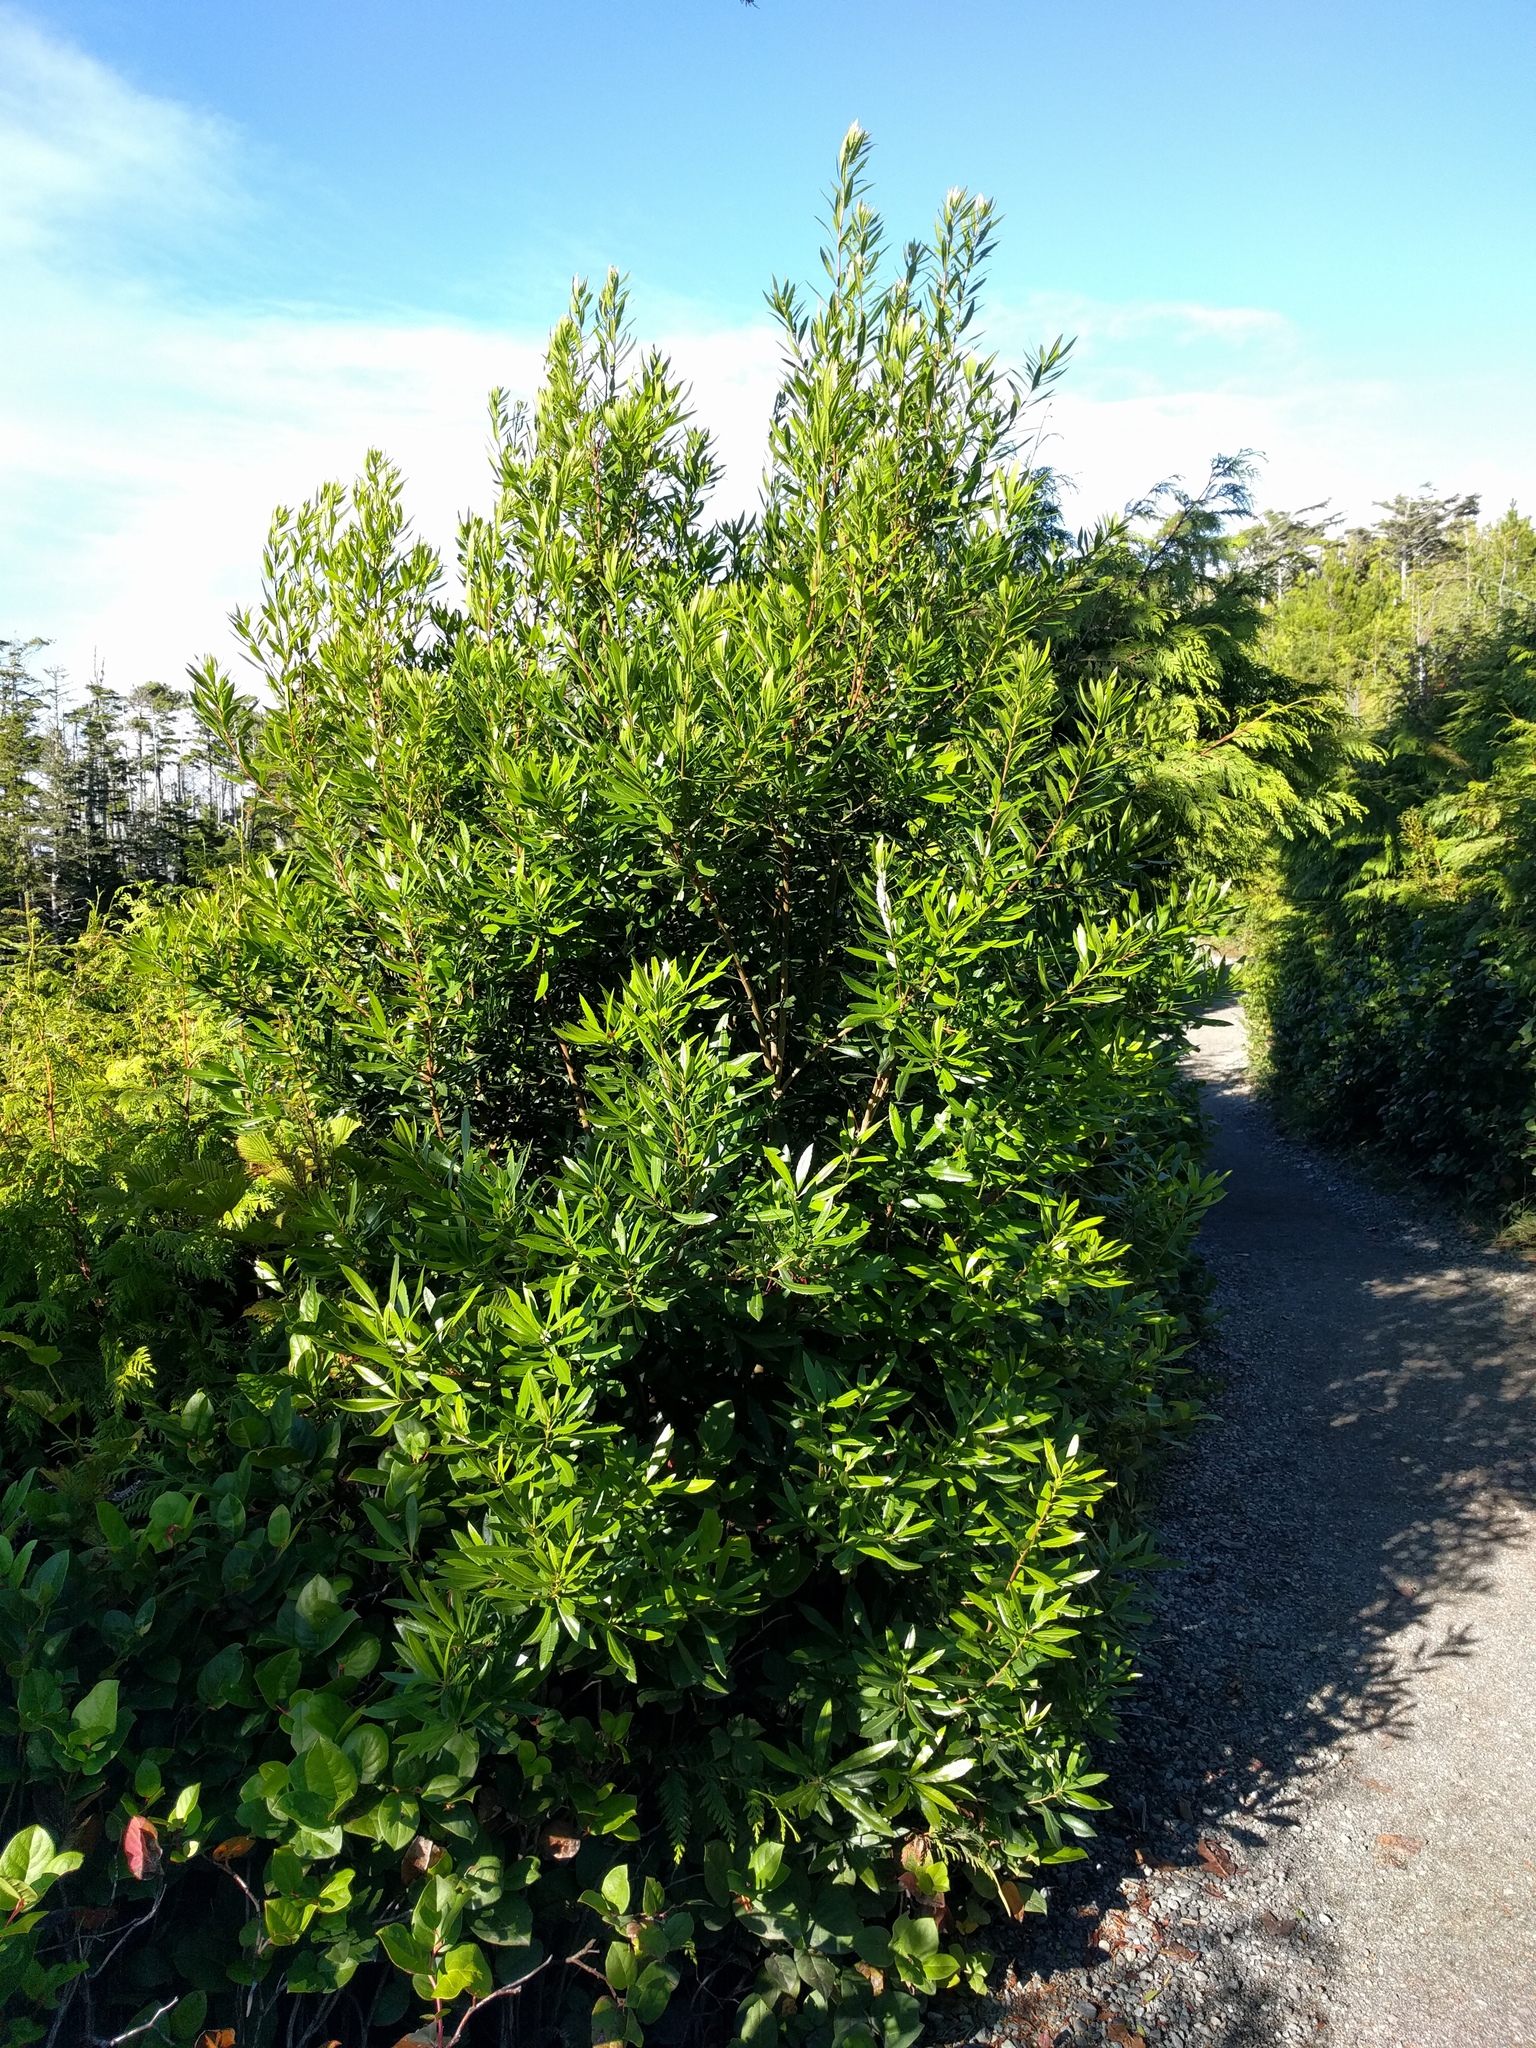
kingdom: Plantae
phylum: Tracheophyta
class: Magnoliopsida
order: Fagales
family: Myricaceae
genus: Morella
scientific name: Morella californica
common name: California wax-myrtle
